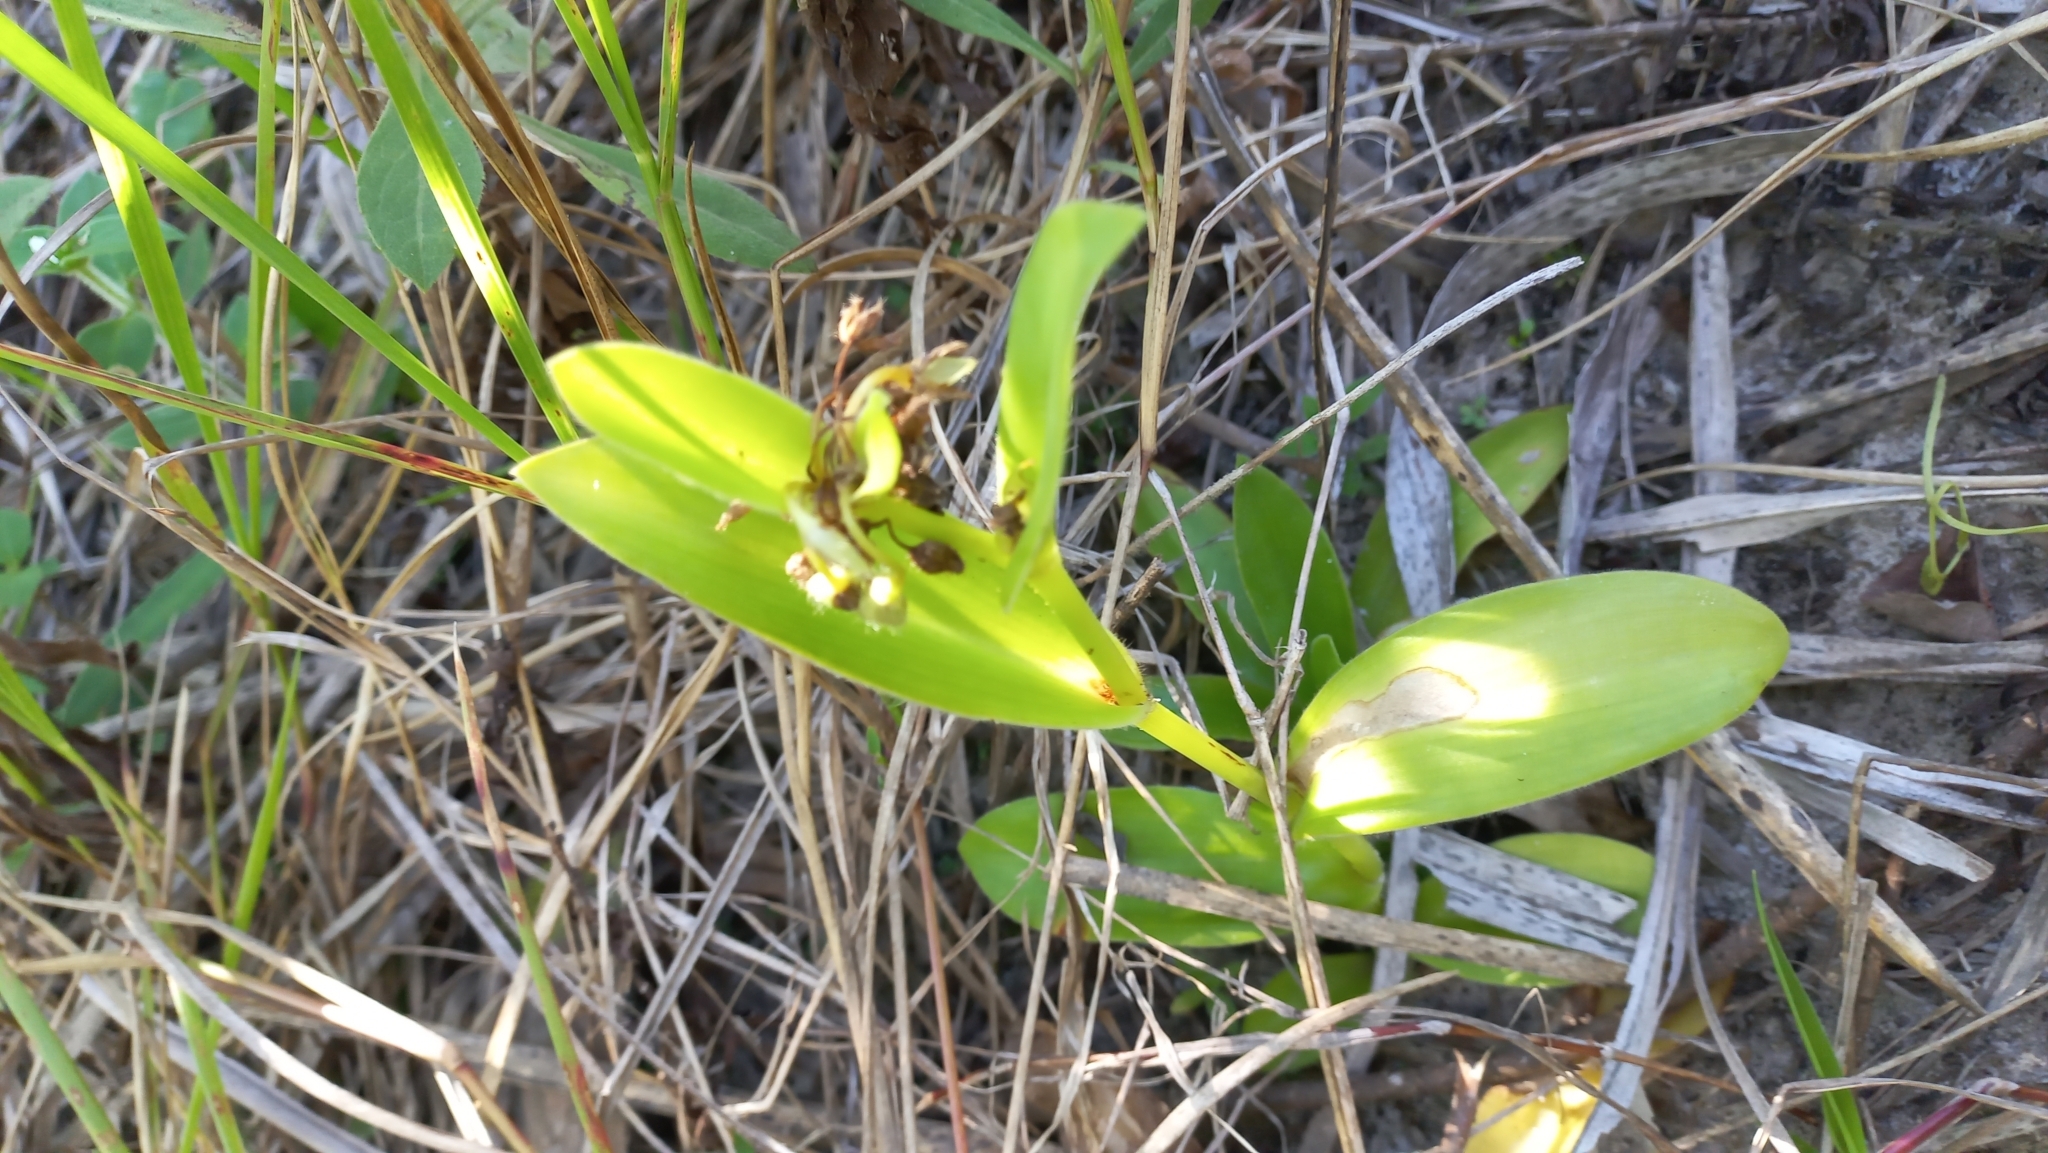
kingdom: Plantae
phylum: Tracheophyta
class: Liliopsida
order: Commelinales
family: Commelinaceae
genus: Tradescantia
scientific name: Tradescantia crassula
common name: Succulent spiderwort
